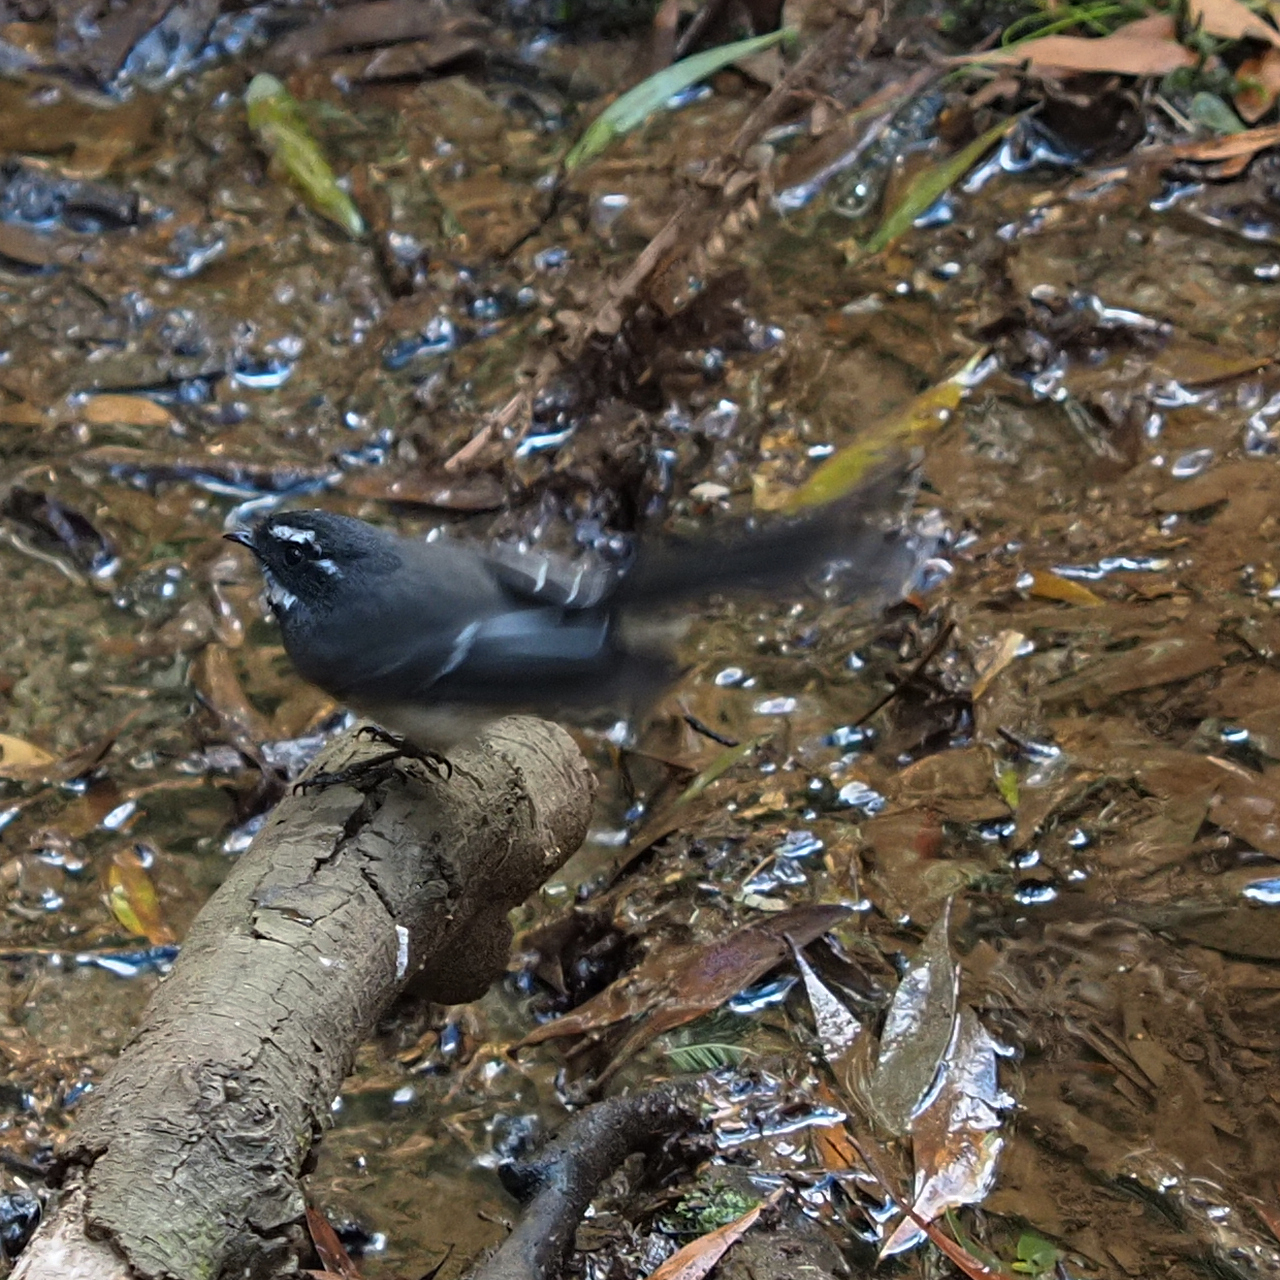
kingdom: Animalia
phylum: Chordata
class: Aves
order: Passeriformes
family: Rhipiduridae
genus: Rhipidura
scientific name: Rhipidura albiscapa
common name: Grey fantail
